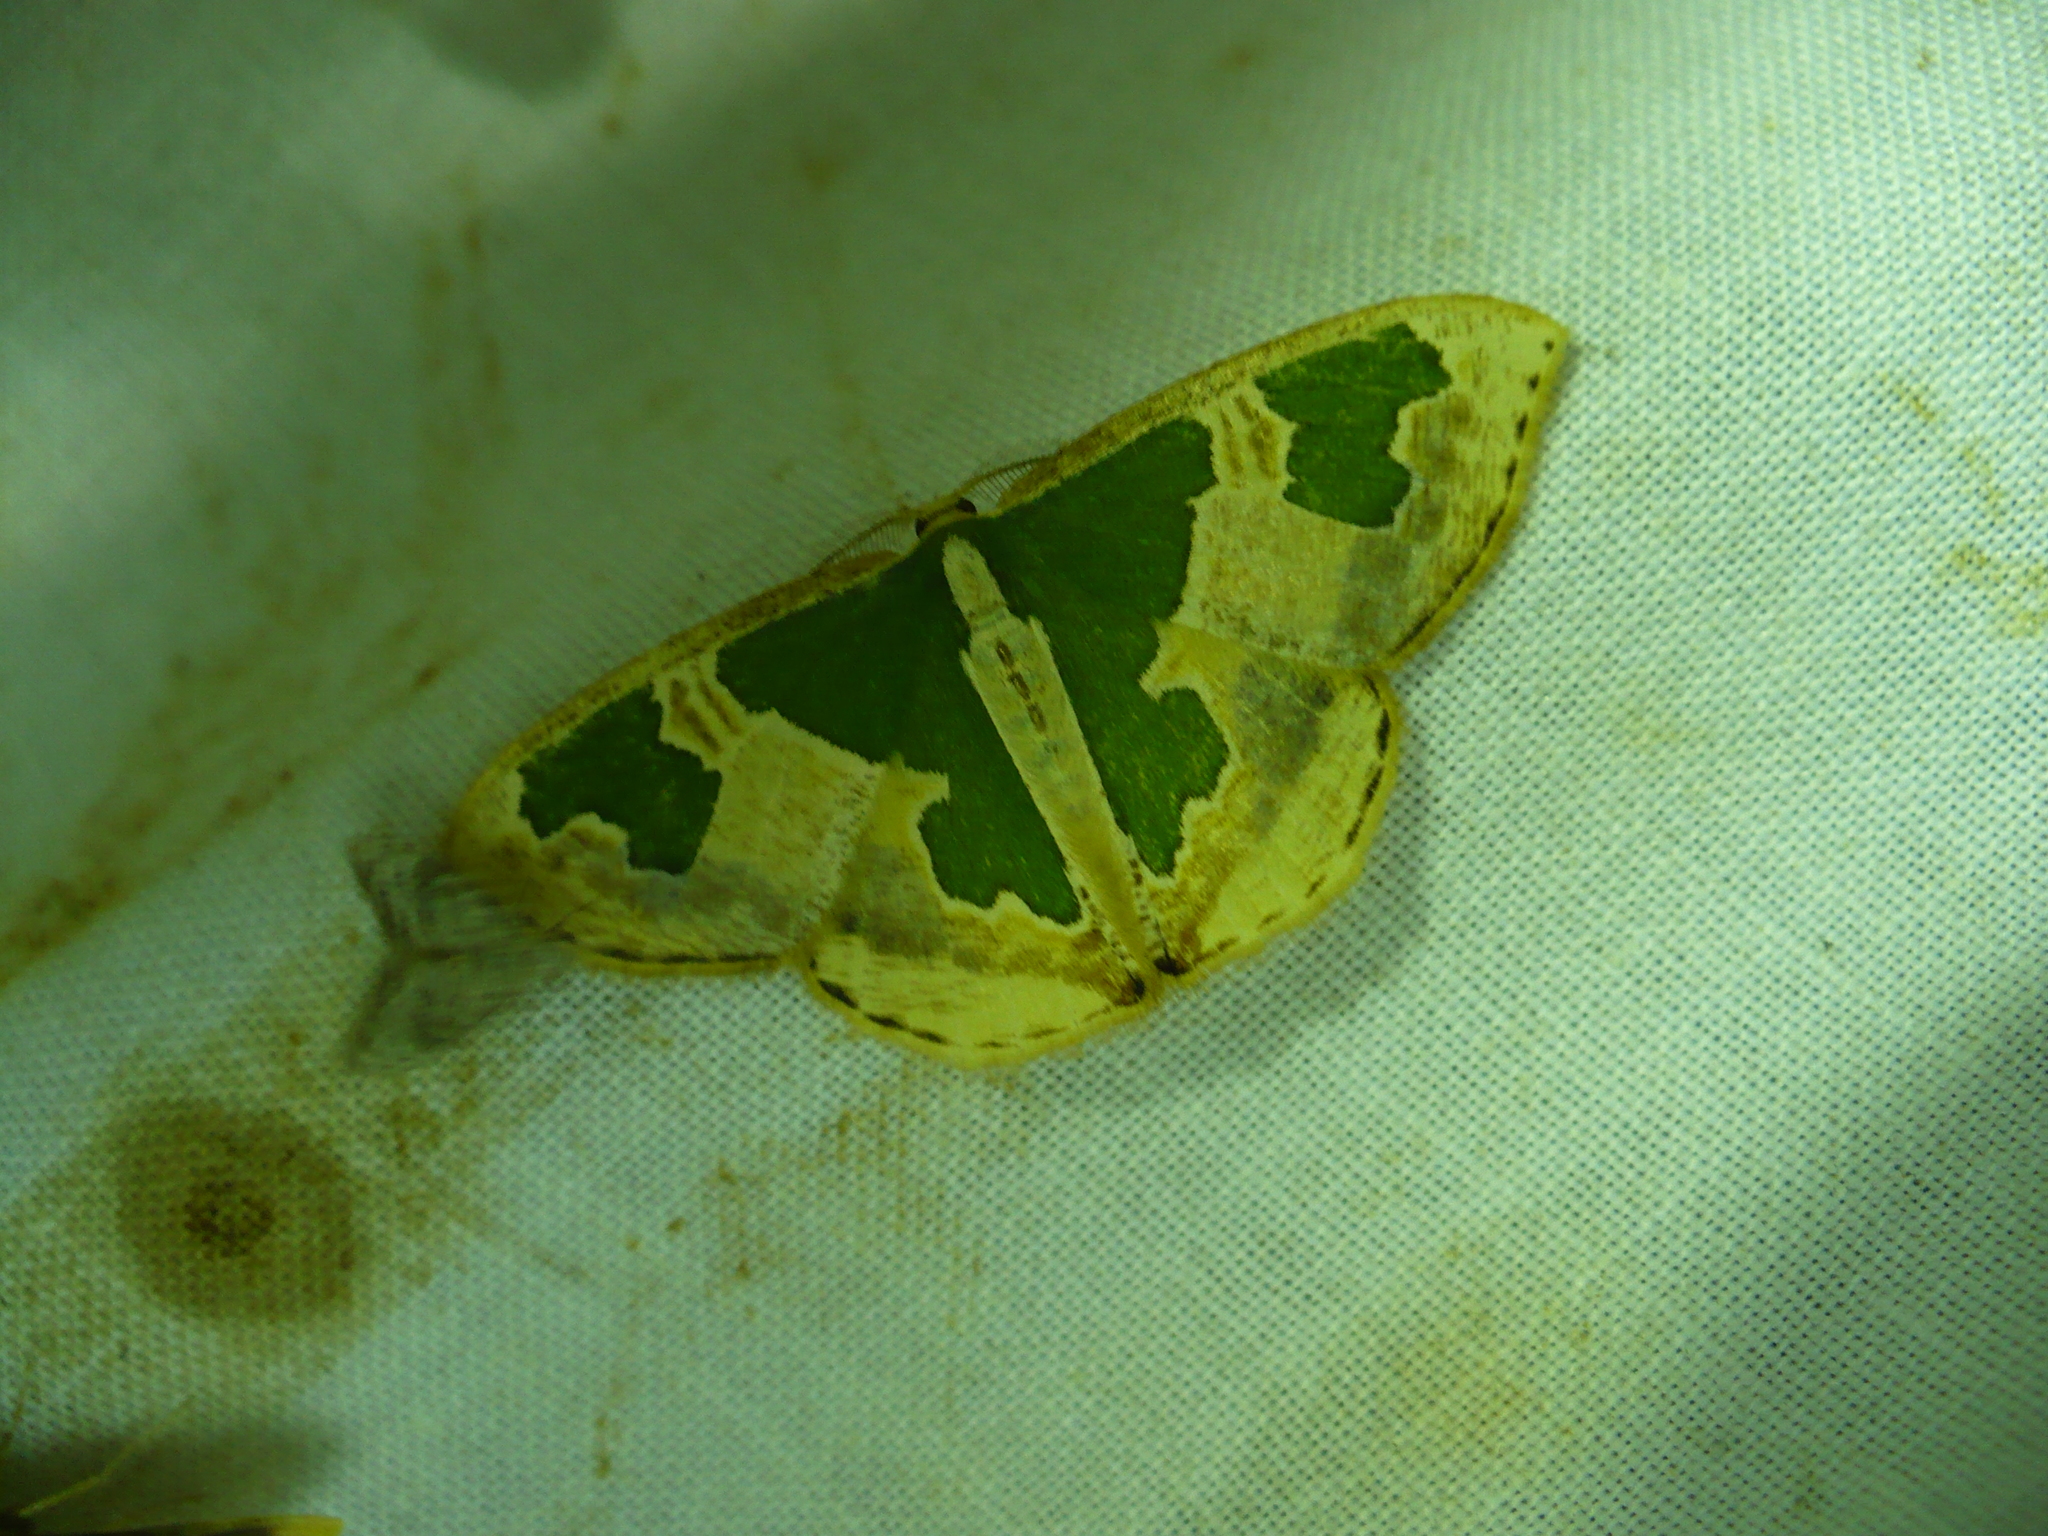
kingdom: Animalia
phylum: Arthropoda
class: Insecta
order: Lepidoptera
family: Geometridae
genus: Oospila
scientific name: Oospila venezuelata
